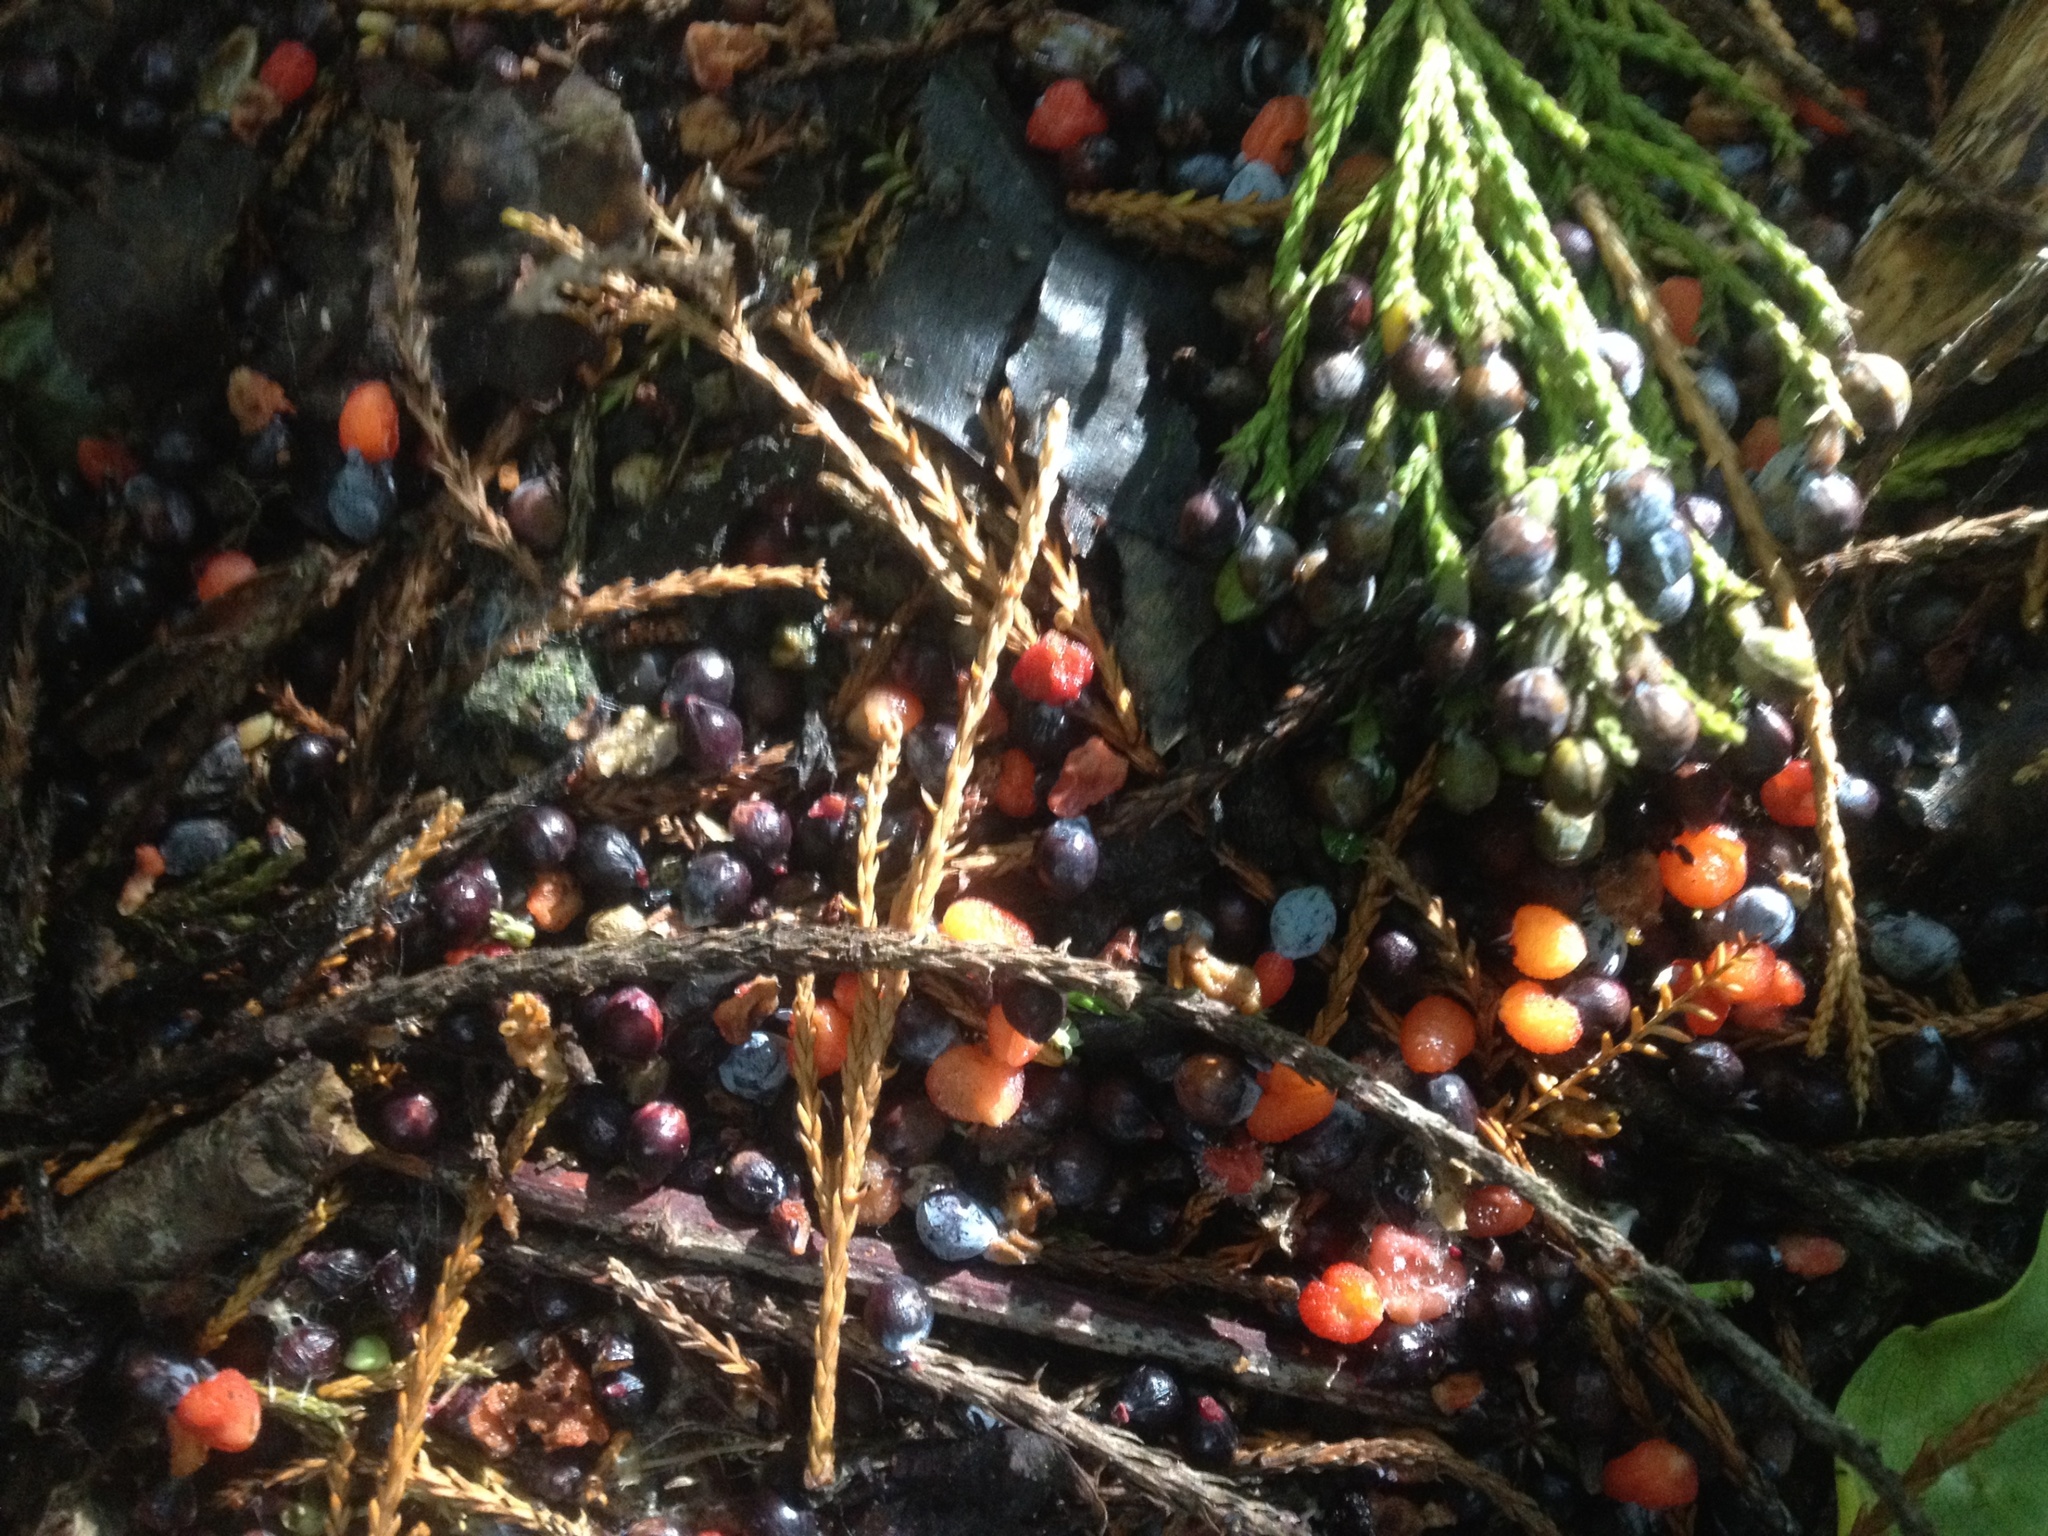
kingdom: Plantae
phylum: Tracheophyta
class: Pinopsida
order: Pinales
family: Podocarpaceae
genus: Dacrycarpus
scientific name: Dacrycarpus dacrydioides
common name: White pine
